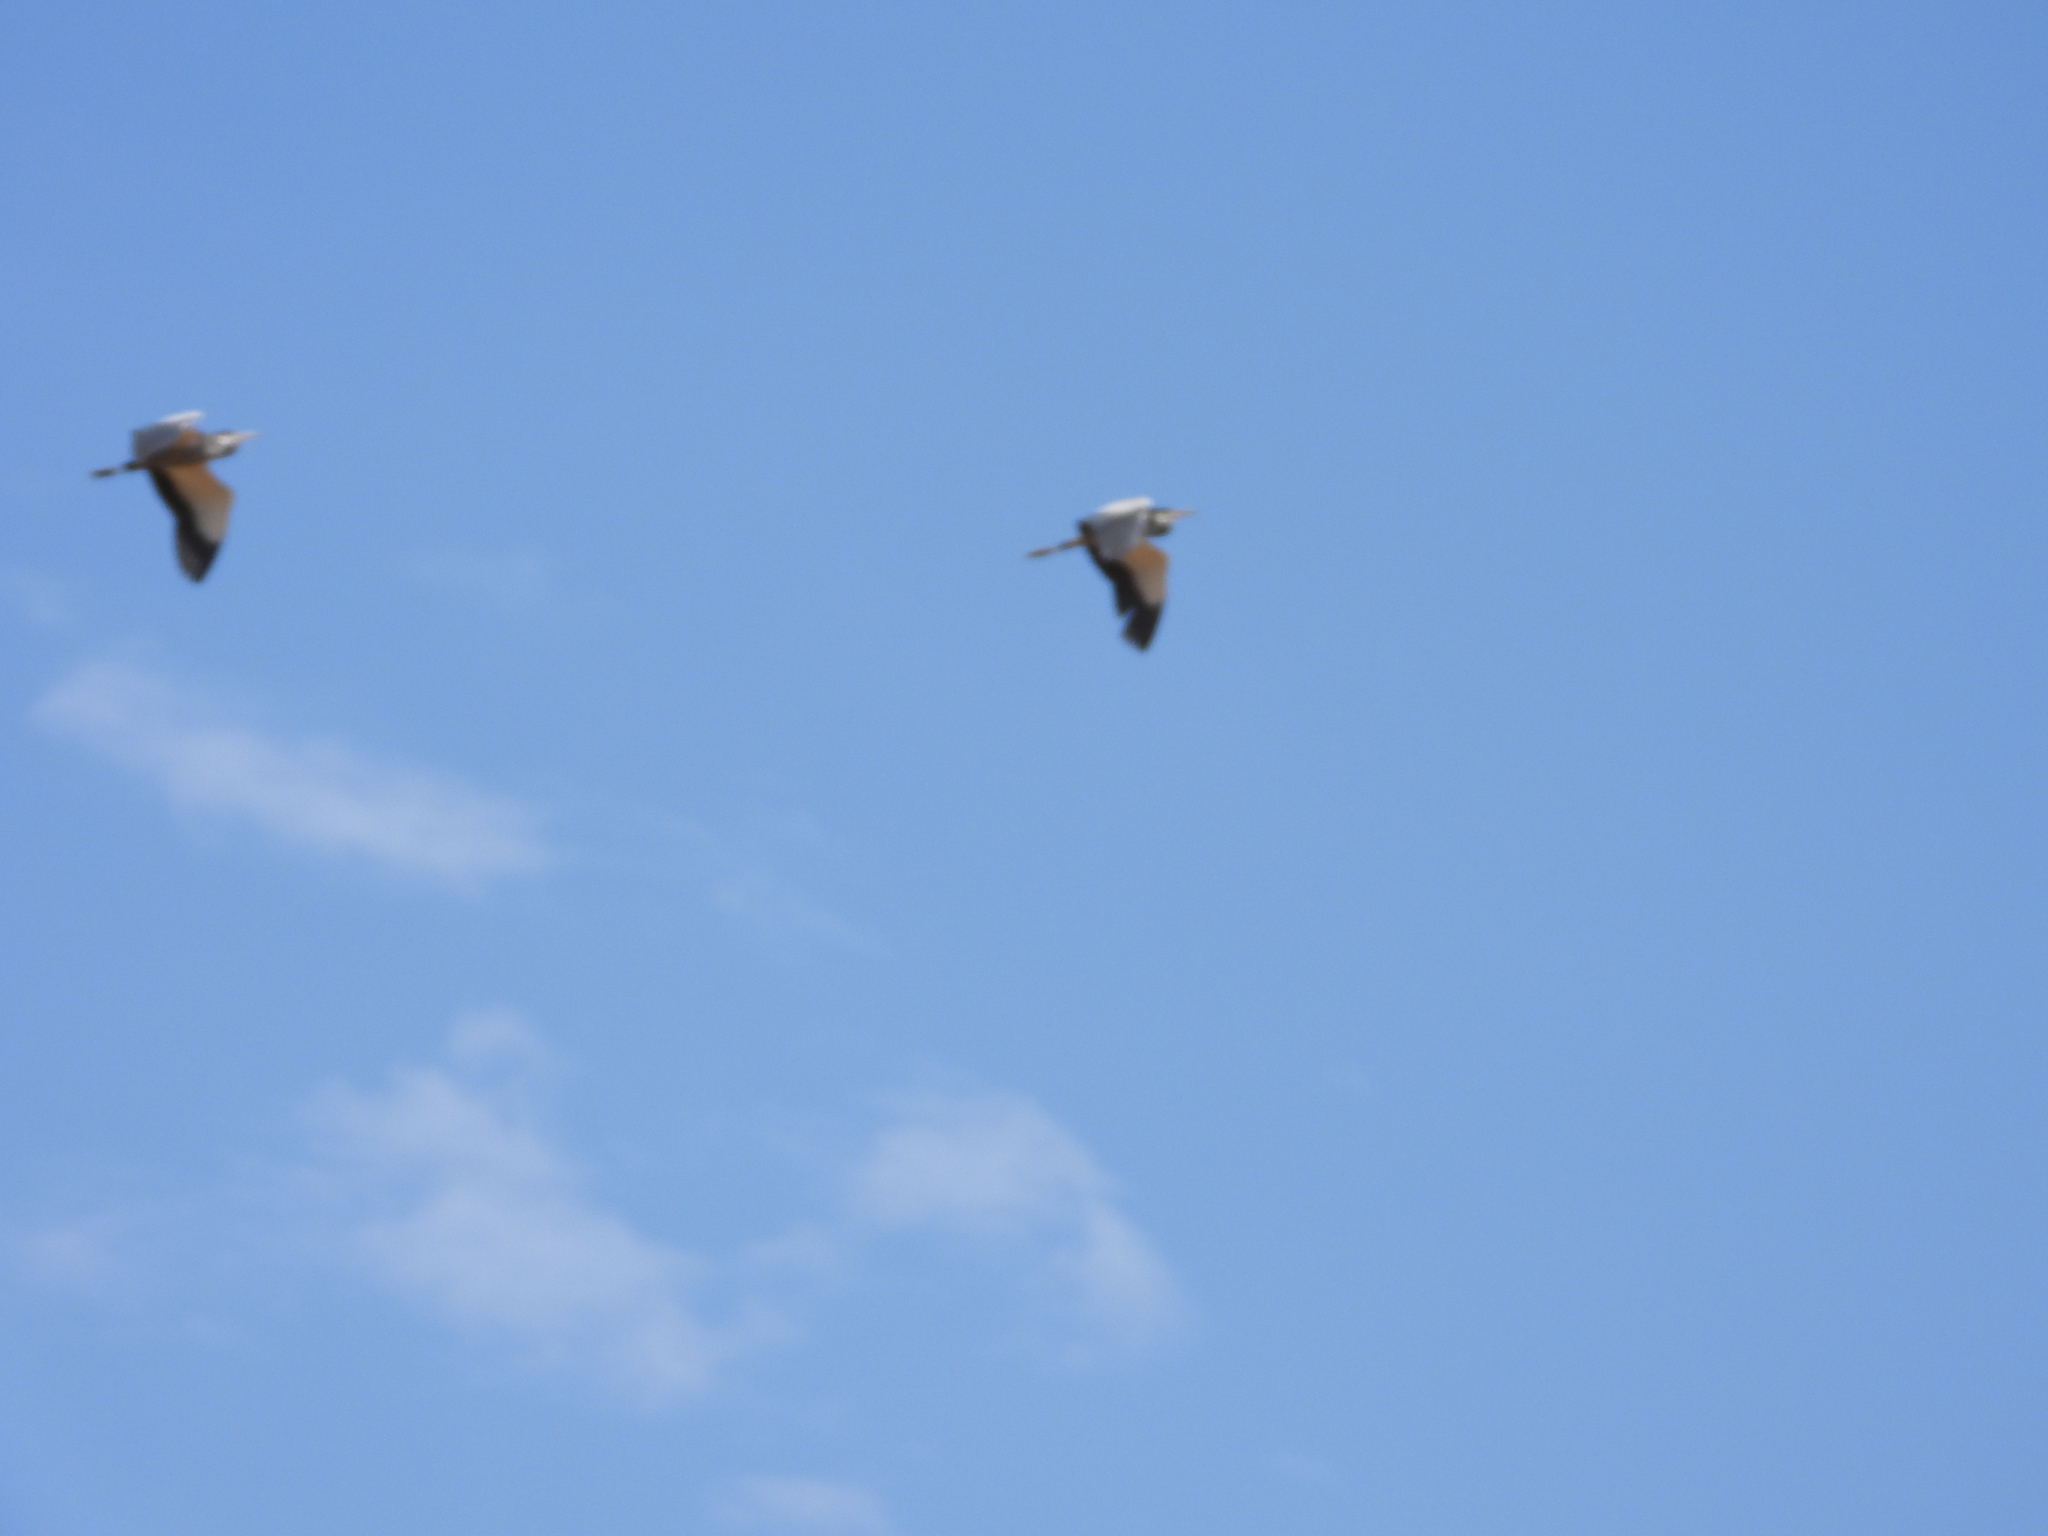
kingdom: Animalia
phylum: Chordata
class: Aves
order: Pelecaniformes
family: Ardeidae
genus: Ardea
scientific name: Ardea melanocephala
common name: Black-headed heron
